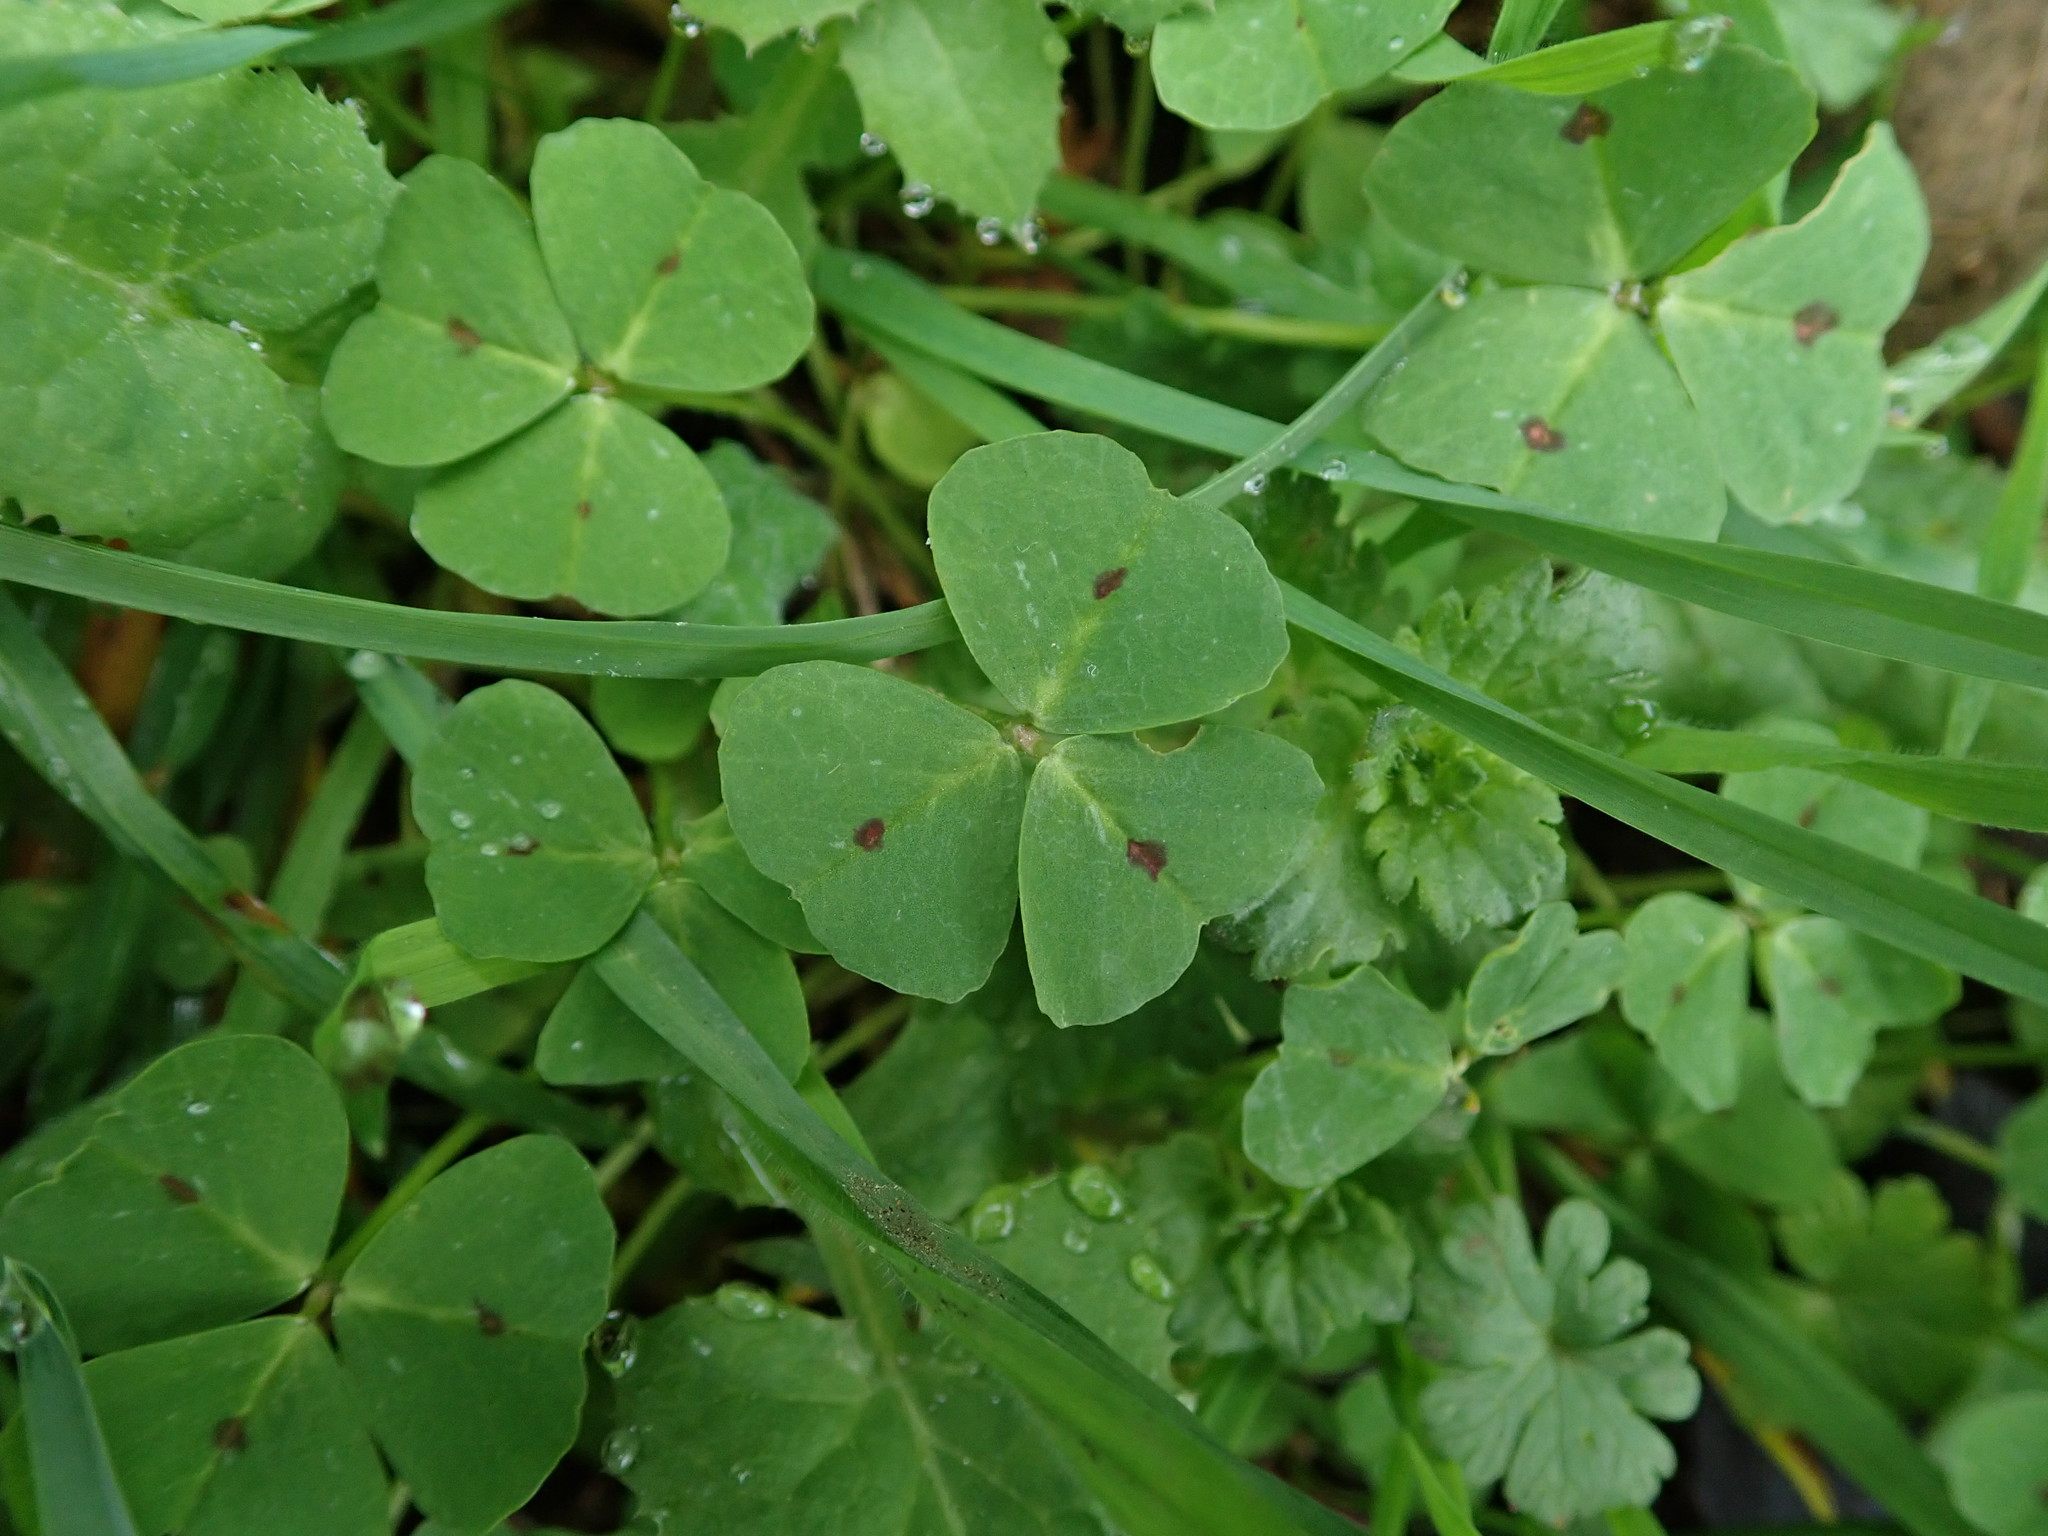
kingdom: Plantae
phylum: Tracheophyta
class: Magnoliopsida
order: Fabales
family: Fabaceae
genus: Medicago
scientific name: Medicago arabica
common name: Spotted medick
